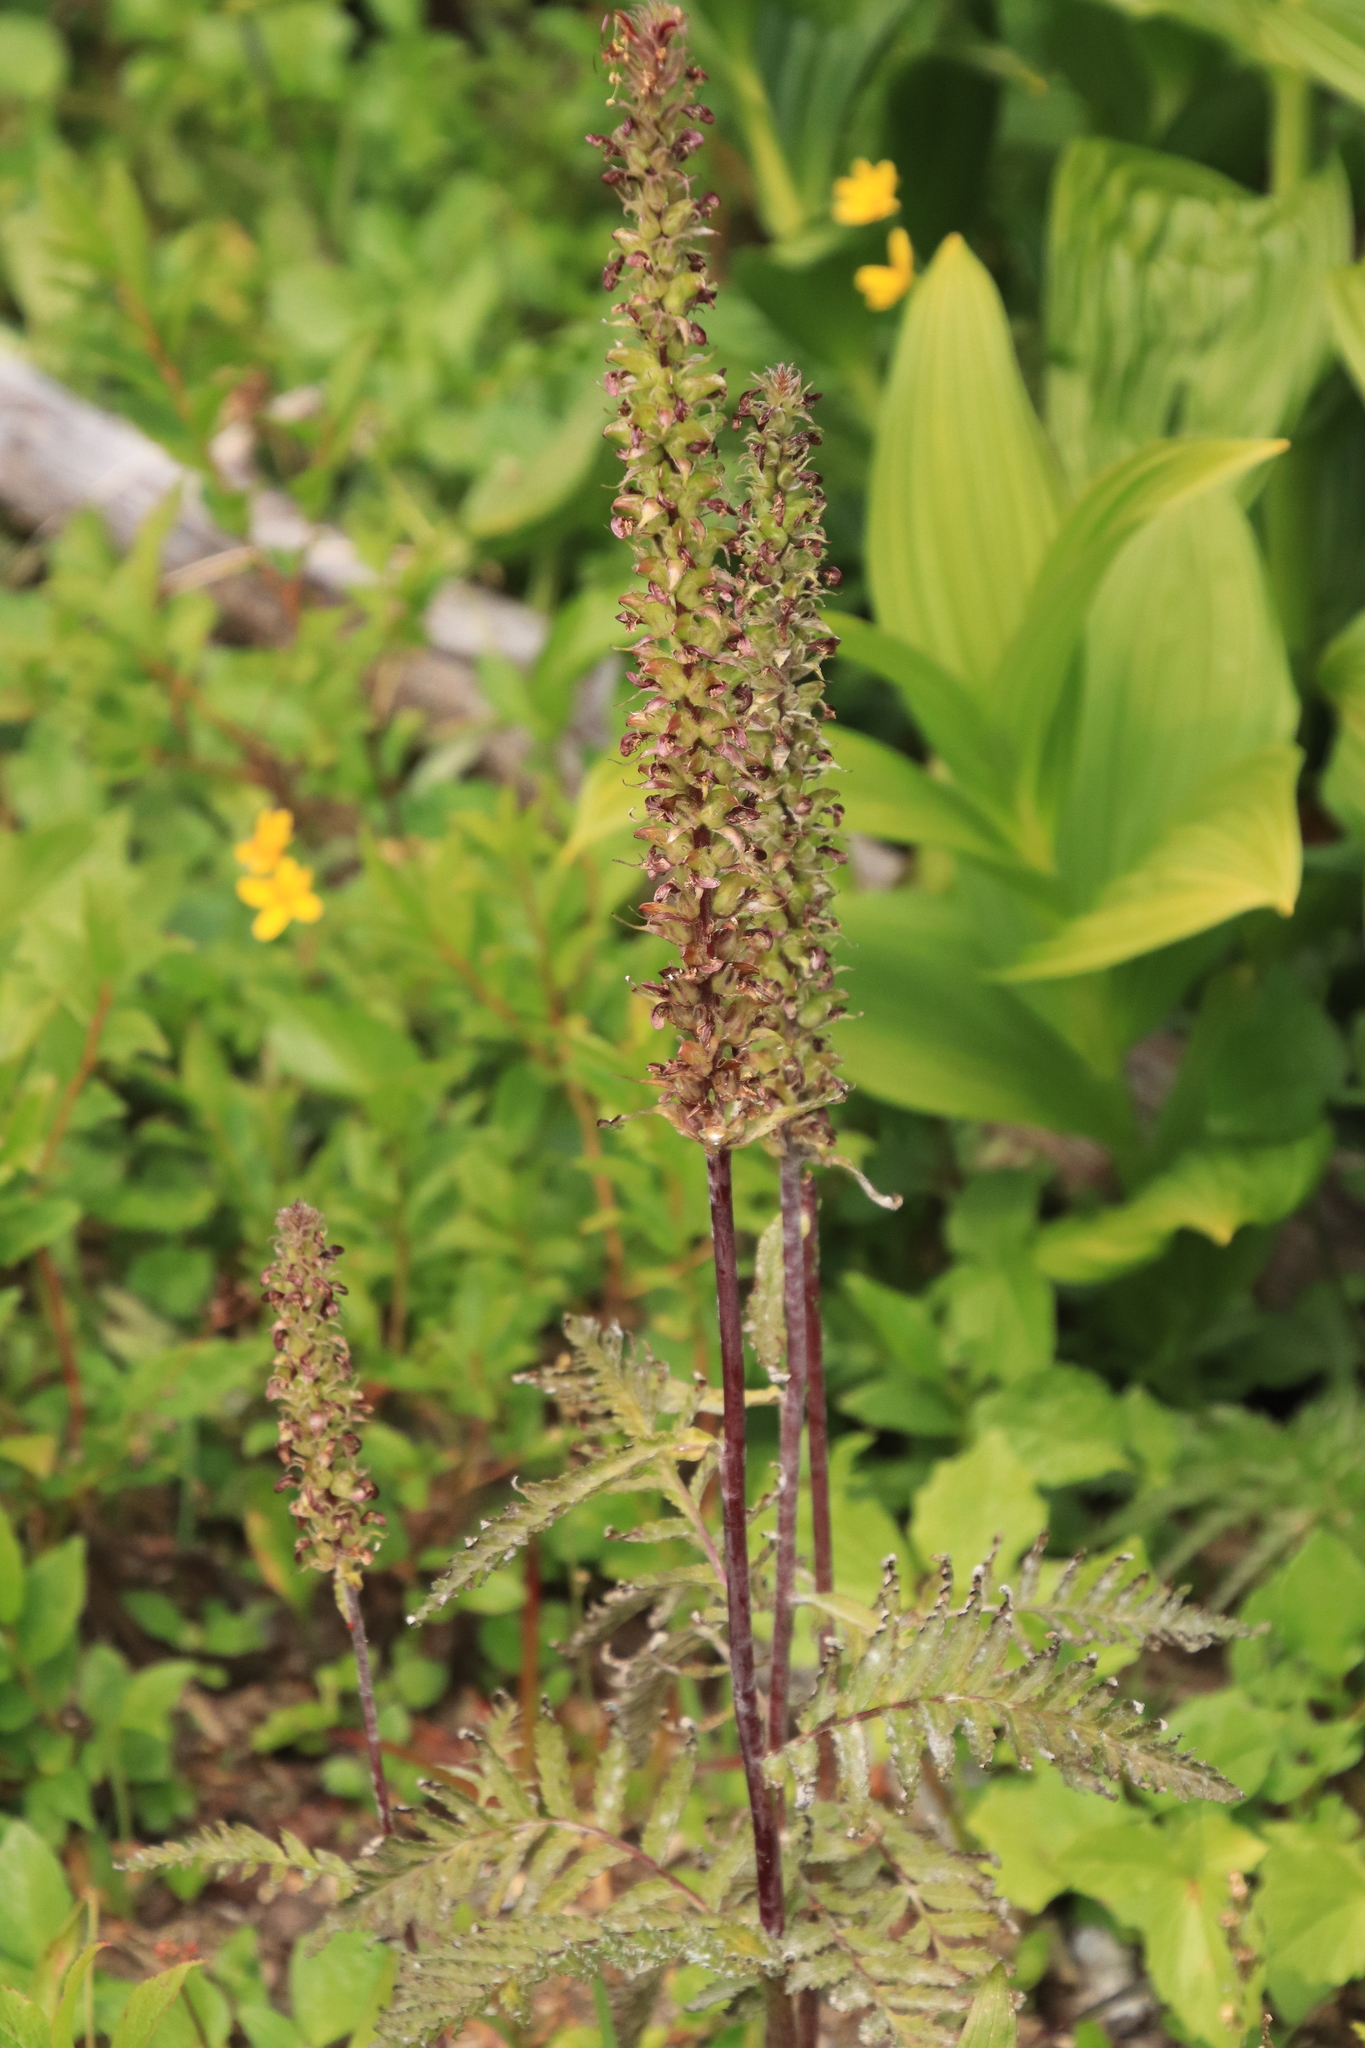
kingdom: Plantae
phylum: Tracheophyta
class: Magnoliopsida
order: Lamiales
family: Orobanchaceae
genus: Pedicularis
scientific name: Pedicularis bracteosa
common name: Bracted lousewort
